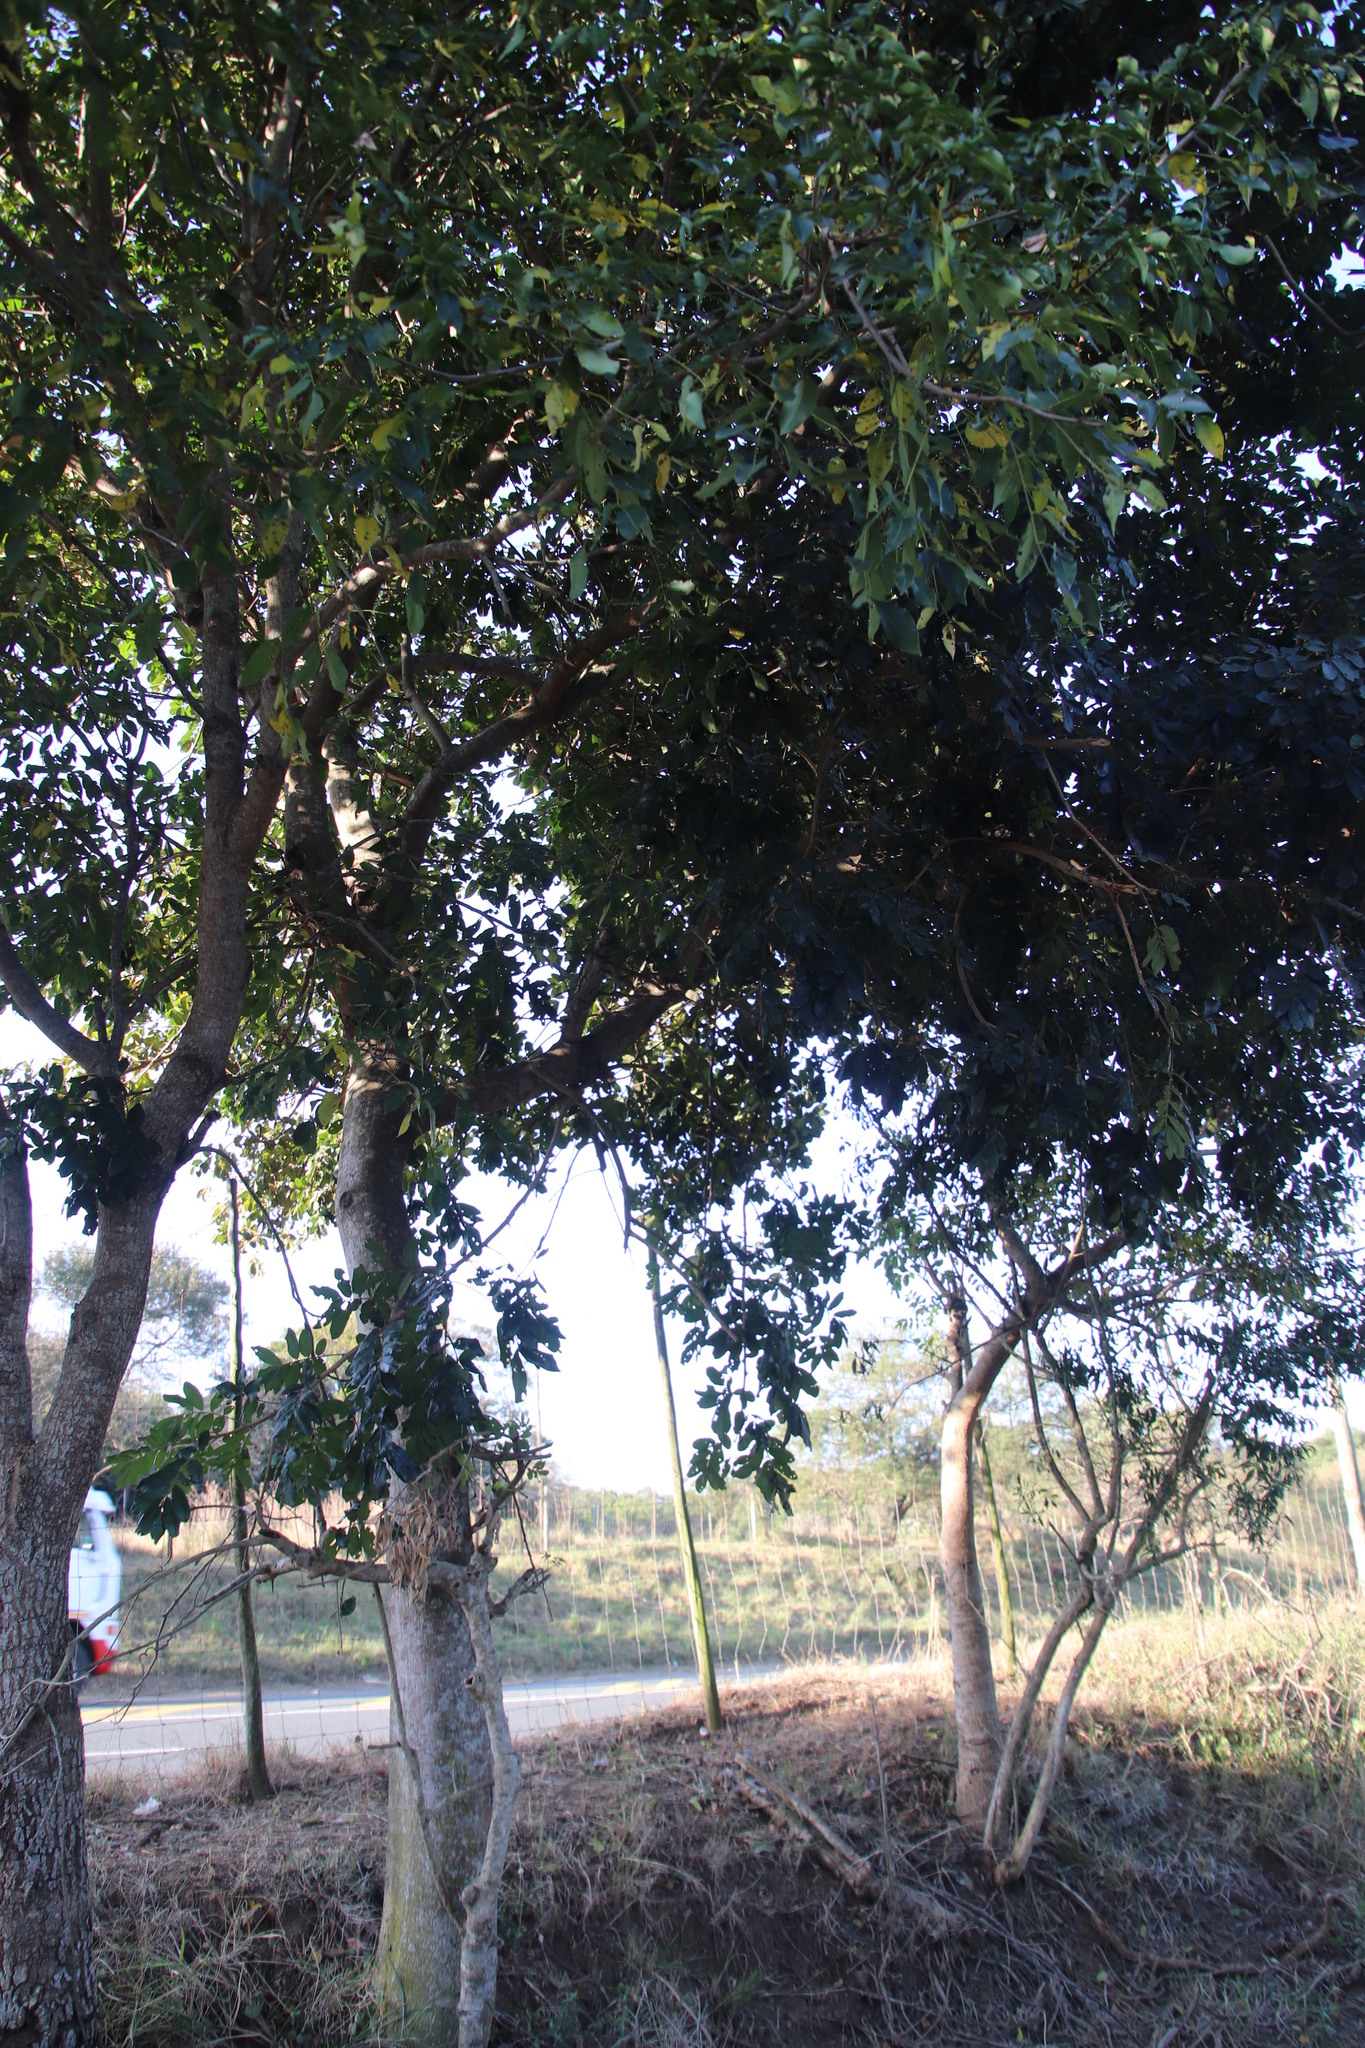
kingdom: Plantae
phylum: Tracheophyta
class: Magnoliopsida
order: Sapindales
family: Meliaceae
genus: Trichilia
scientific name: Trichilia emetica
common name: Christmas-bells
